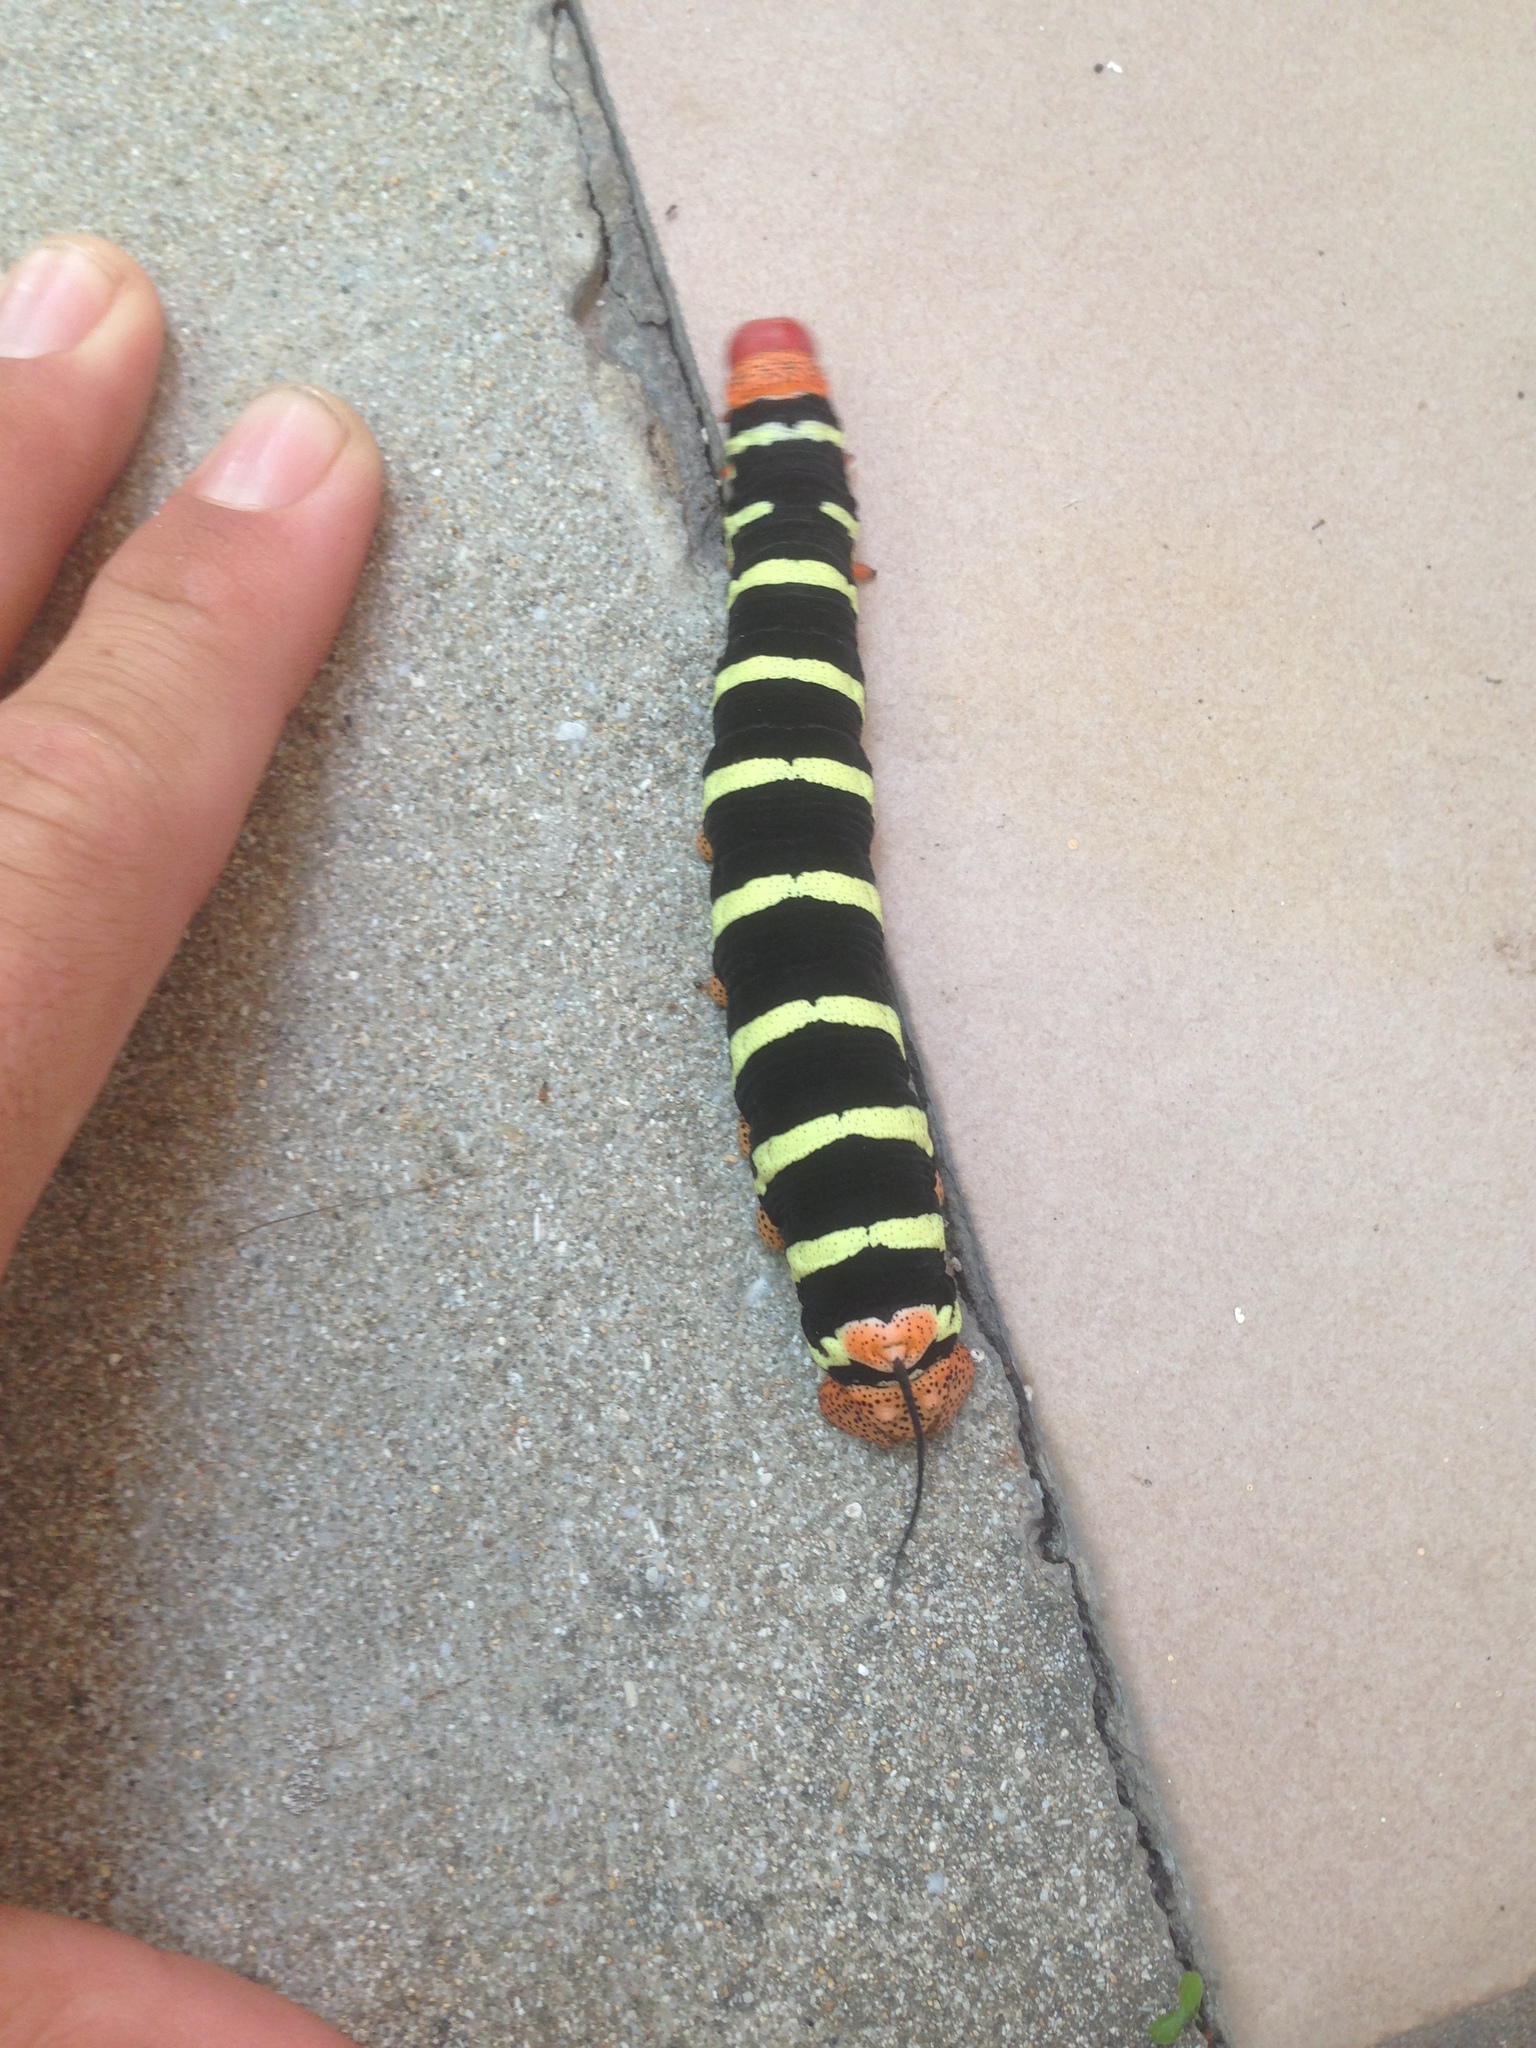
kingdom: Animalia
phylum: Arthropoda
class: Insecta
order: Lepidoptera
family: Sphingidae
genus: Pseudosphinx
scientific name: Pseudosphinx tetrio
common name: Tetrio sphinx
